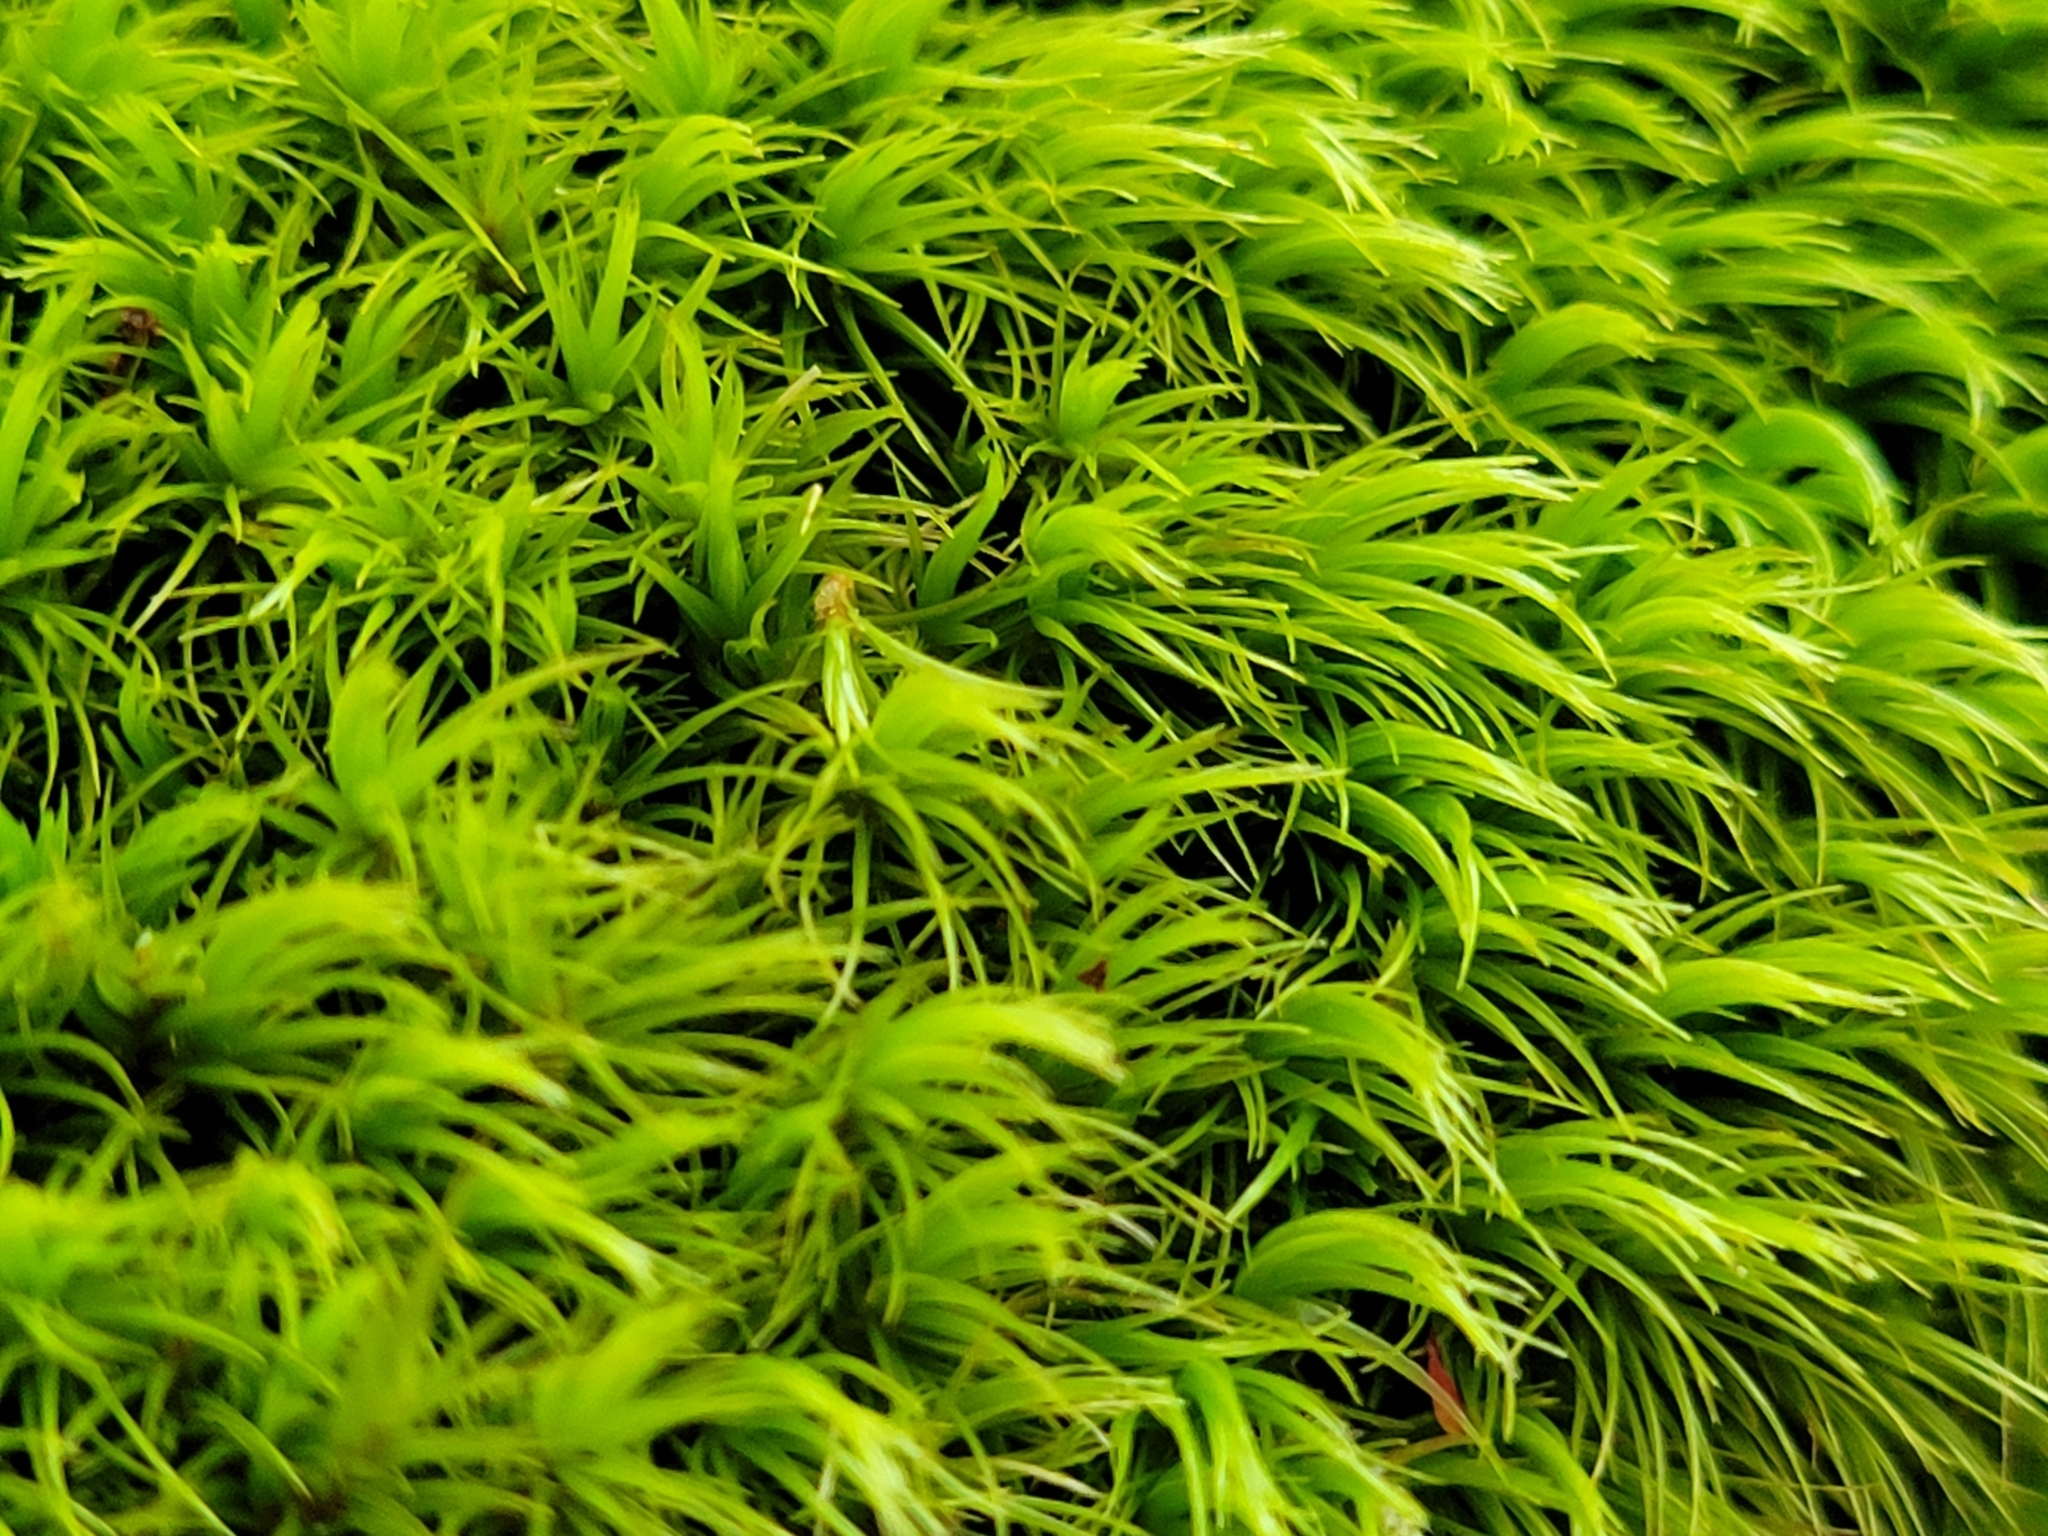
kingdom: Plantae
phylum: Bryophyta
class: Bryopsida
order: Dicranales
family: Dicranaceae
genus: Dicranum
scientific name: Dicranum scoparium
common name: Broom fork-moss
